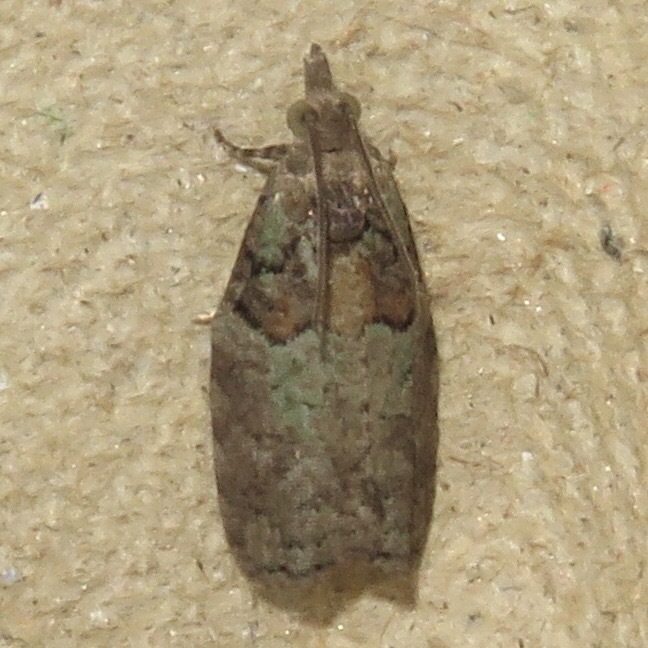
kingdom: Animalia
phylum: Arthropoda
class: Insecta
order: Lepidoptera
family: Tortricidae
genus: Epinotia
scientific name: Epinotia medioviridana
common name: Raspberry leaf-roller moth
